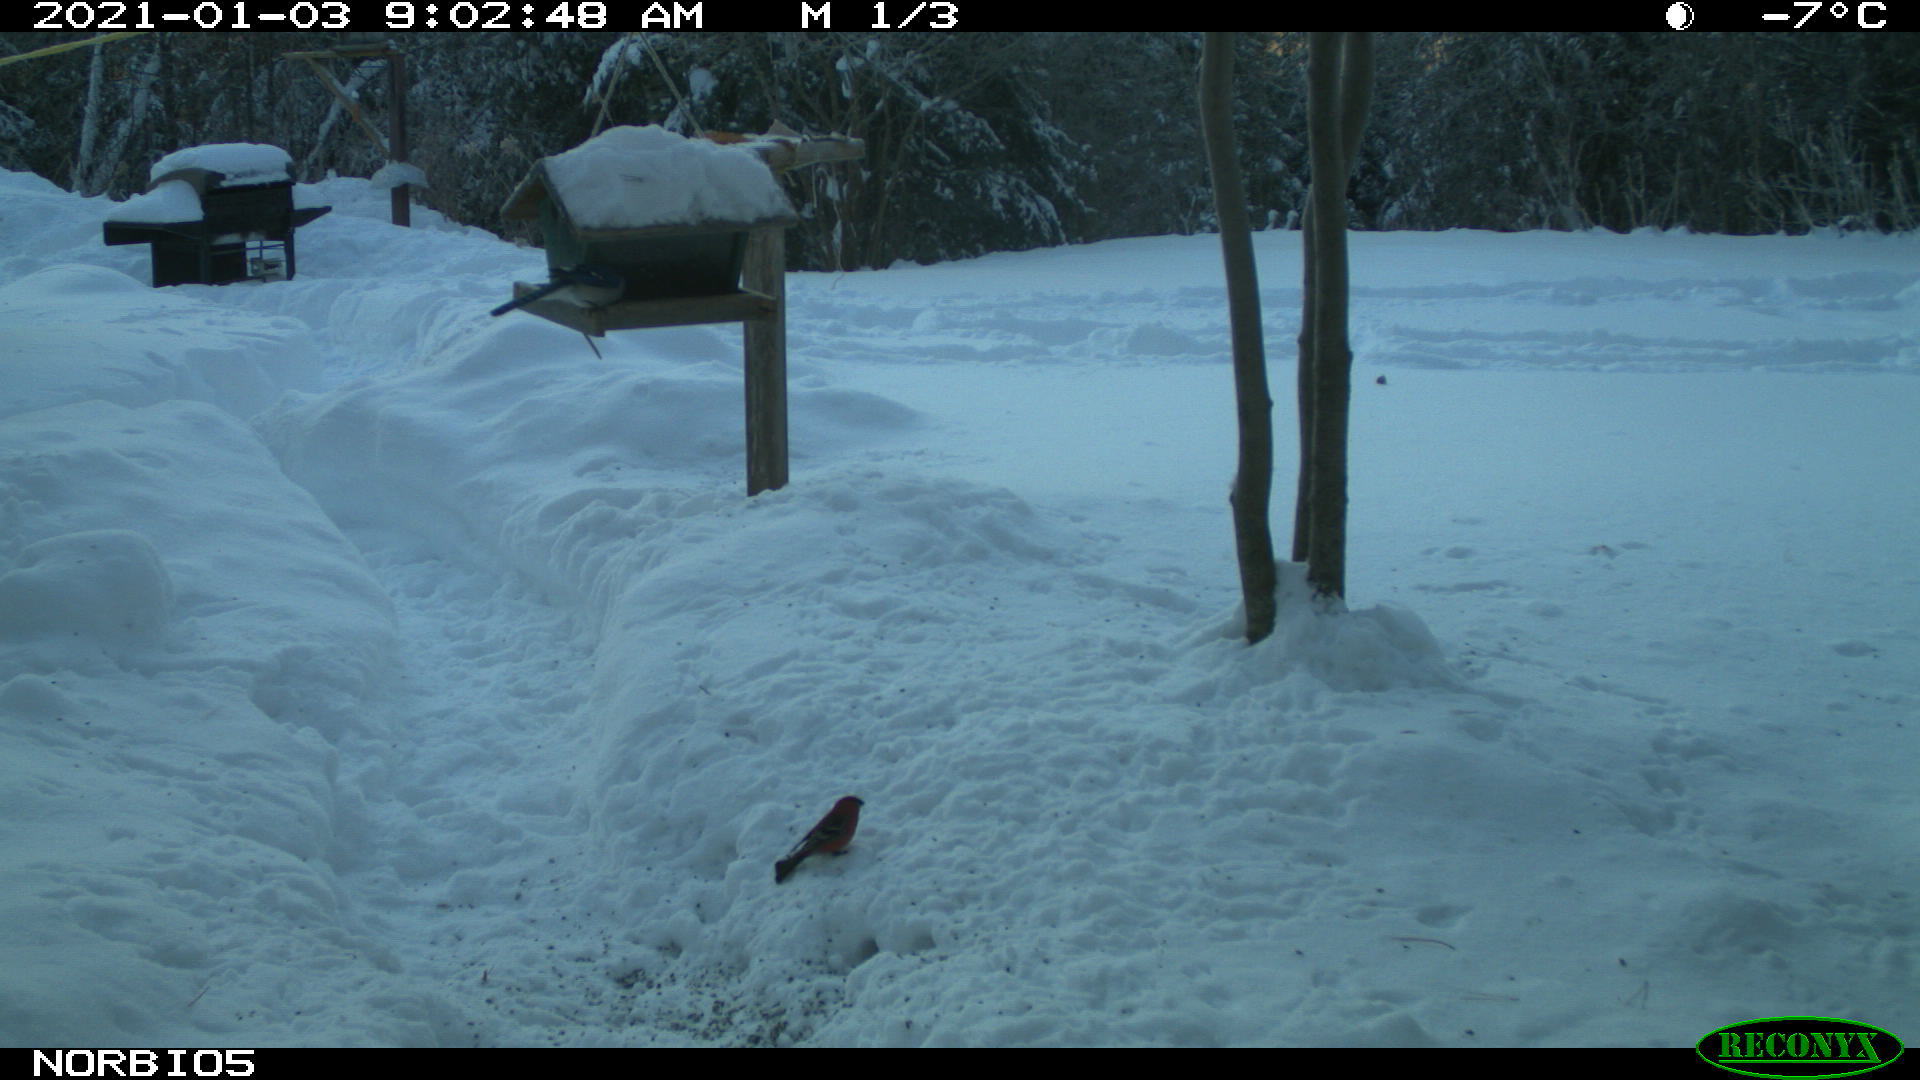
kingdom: Animalia
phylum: Chordata
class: Aves
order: Passeriformes
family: Fringillidae
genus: Pinicola
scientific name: Pinicola enucleator
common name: Pine grosbeak
